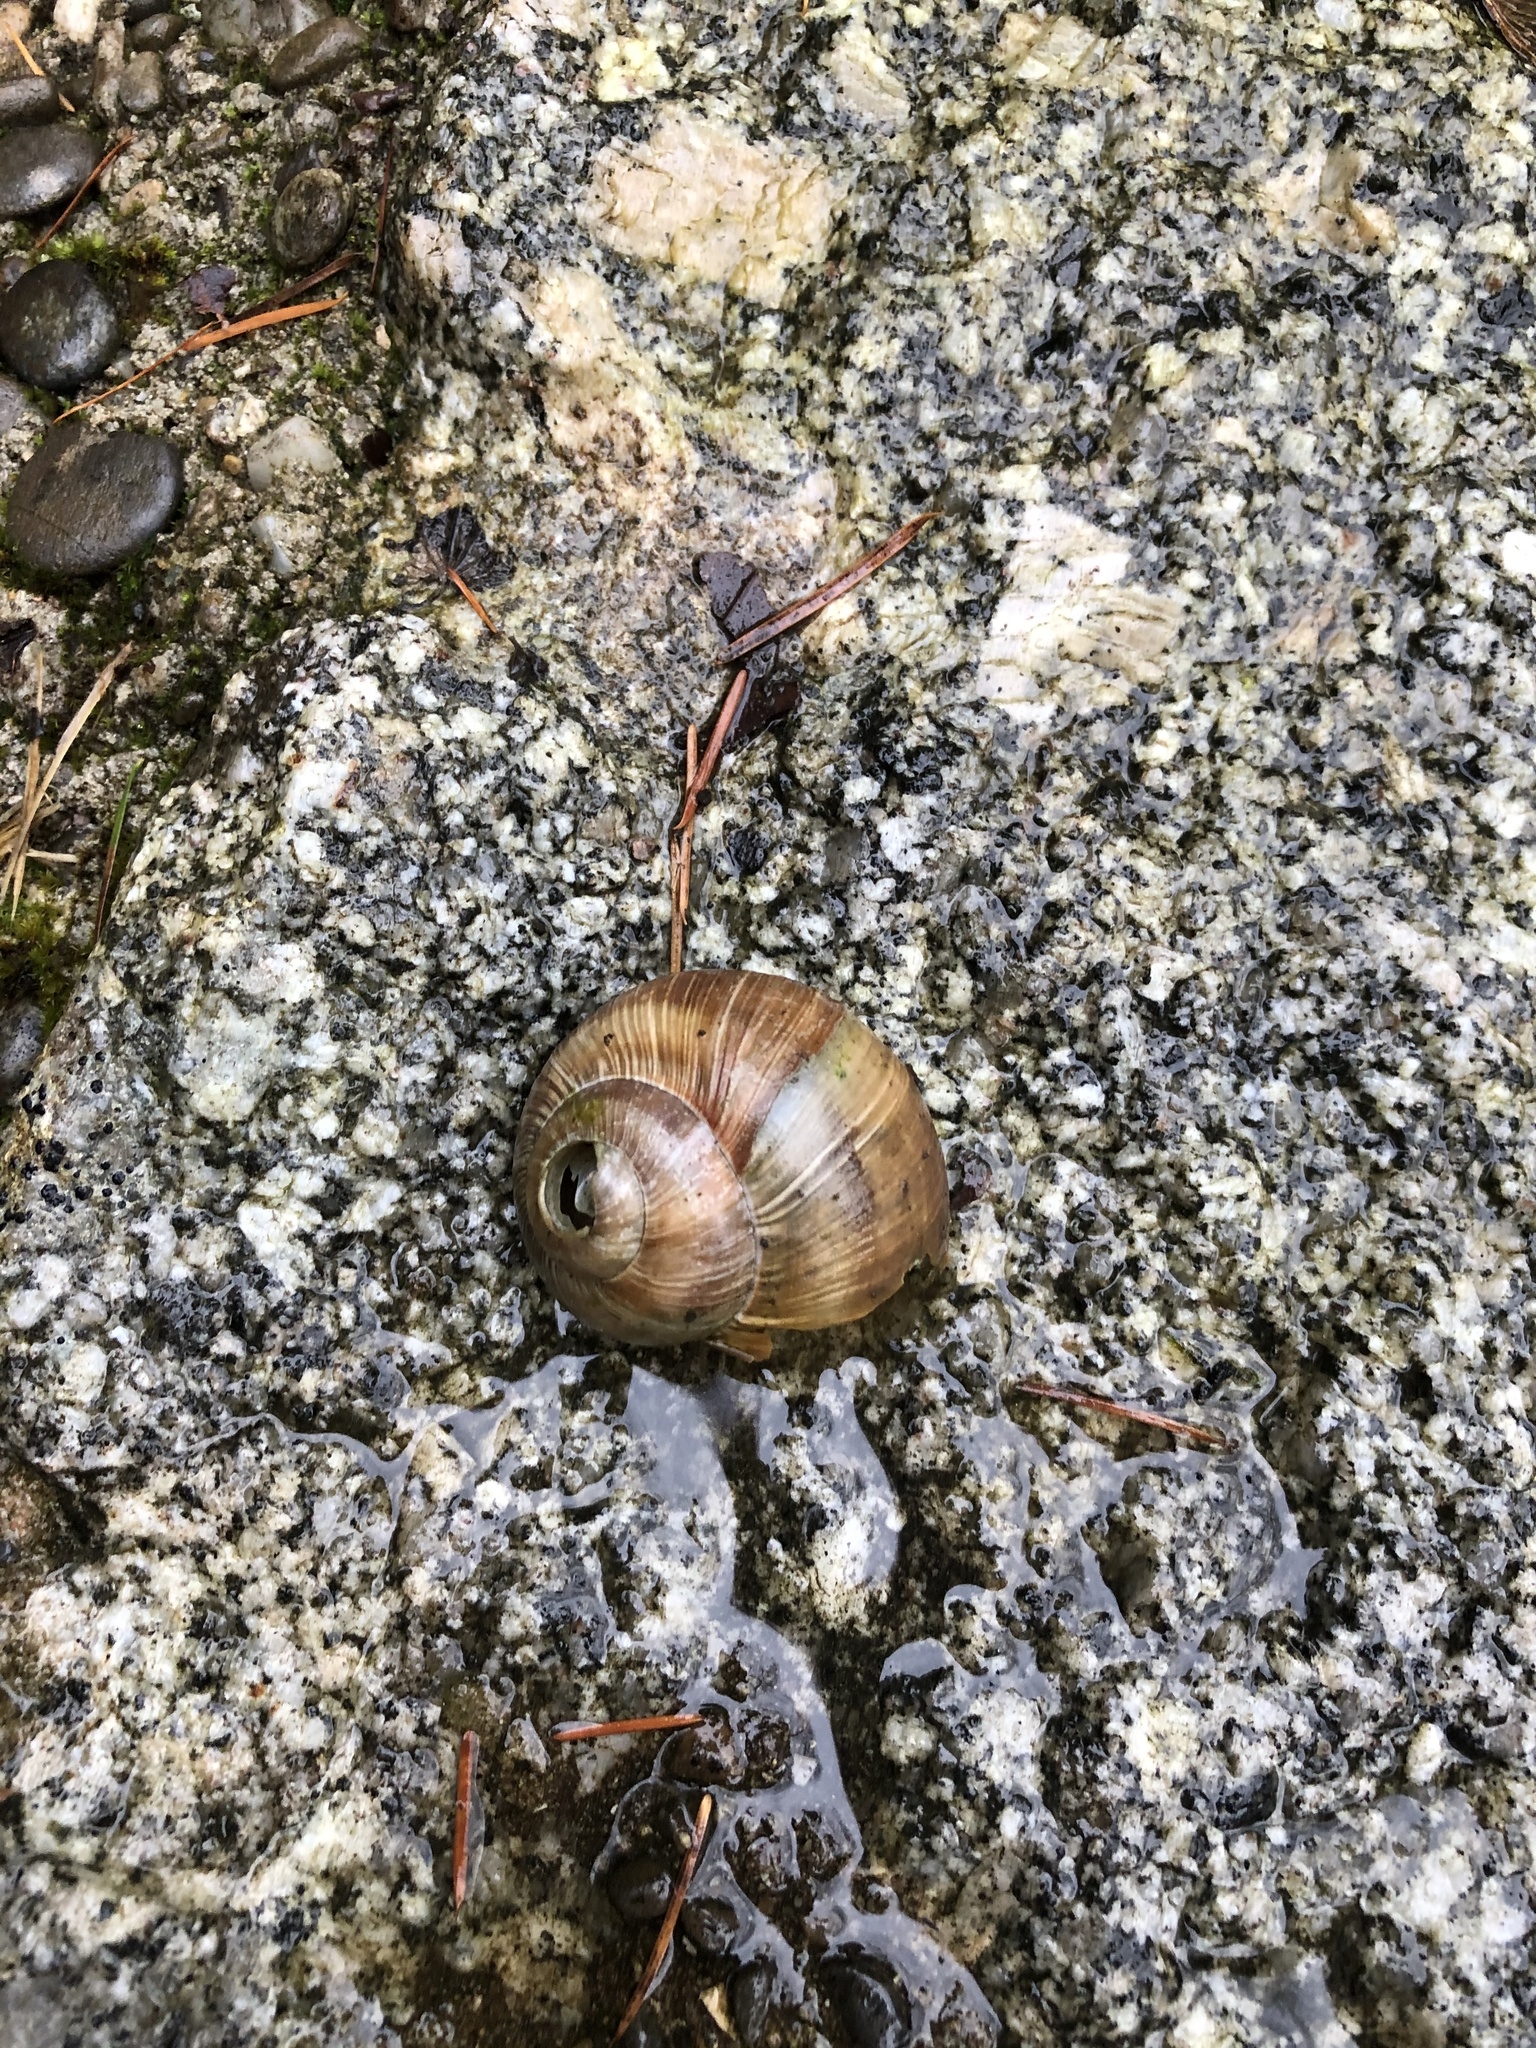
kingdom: Animalia
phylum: Mollusca
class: Gastropoda
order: Stylommatophora
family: Helicidae
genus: Helix
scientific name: Helix pomatia
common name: Roman snail
